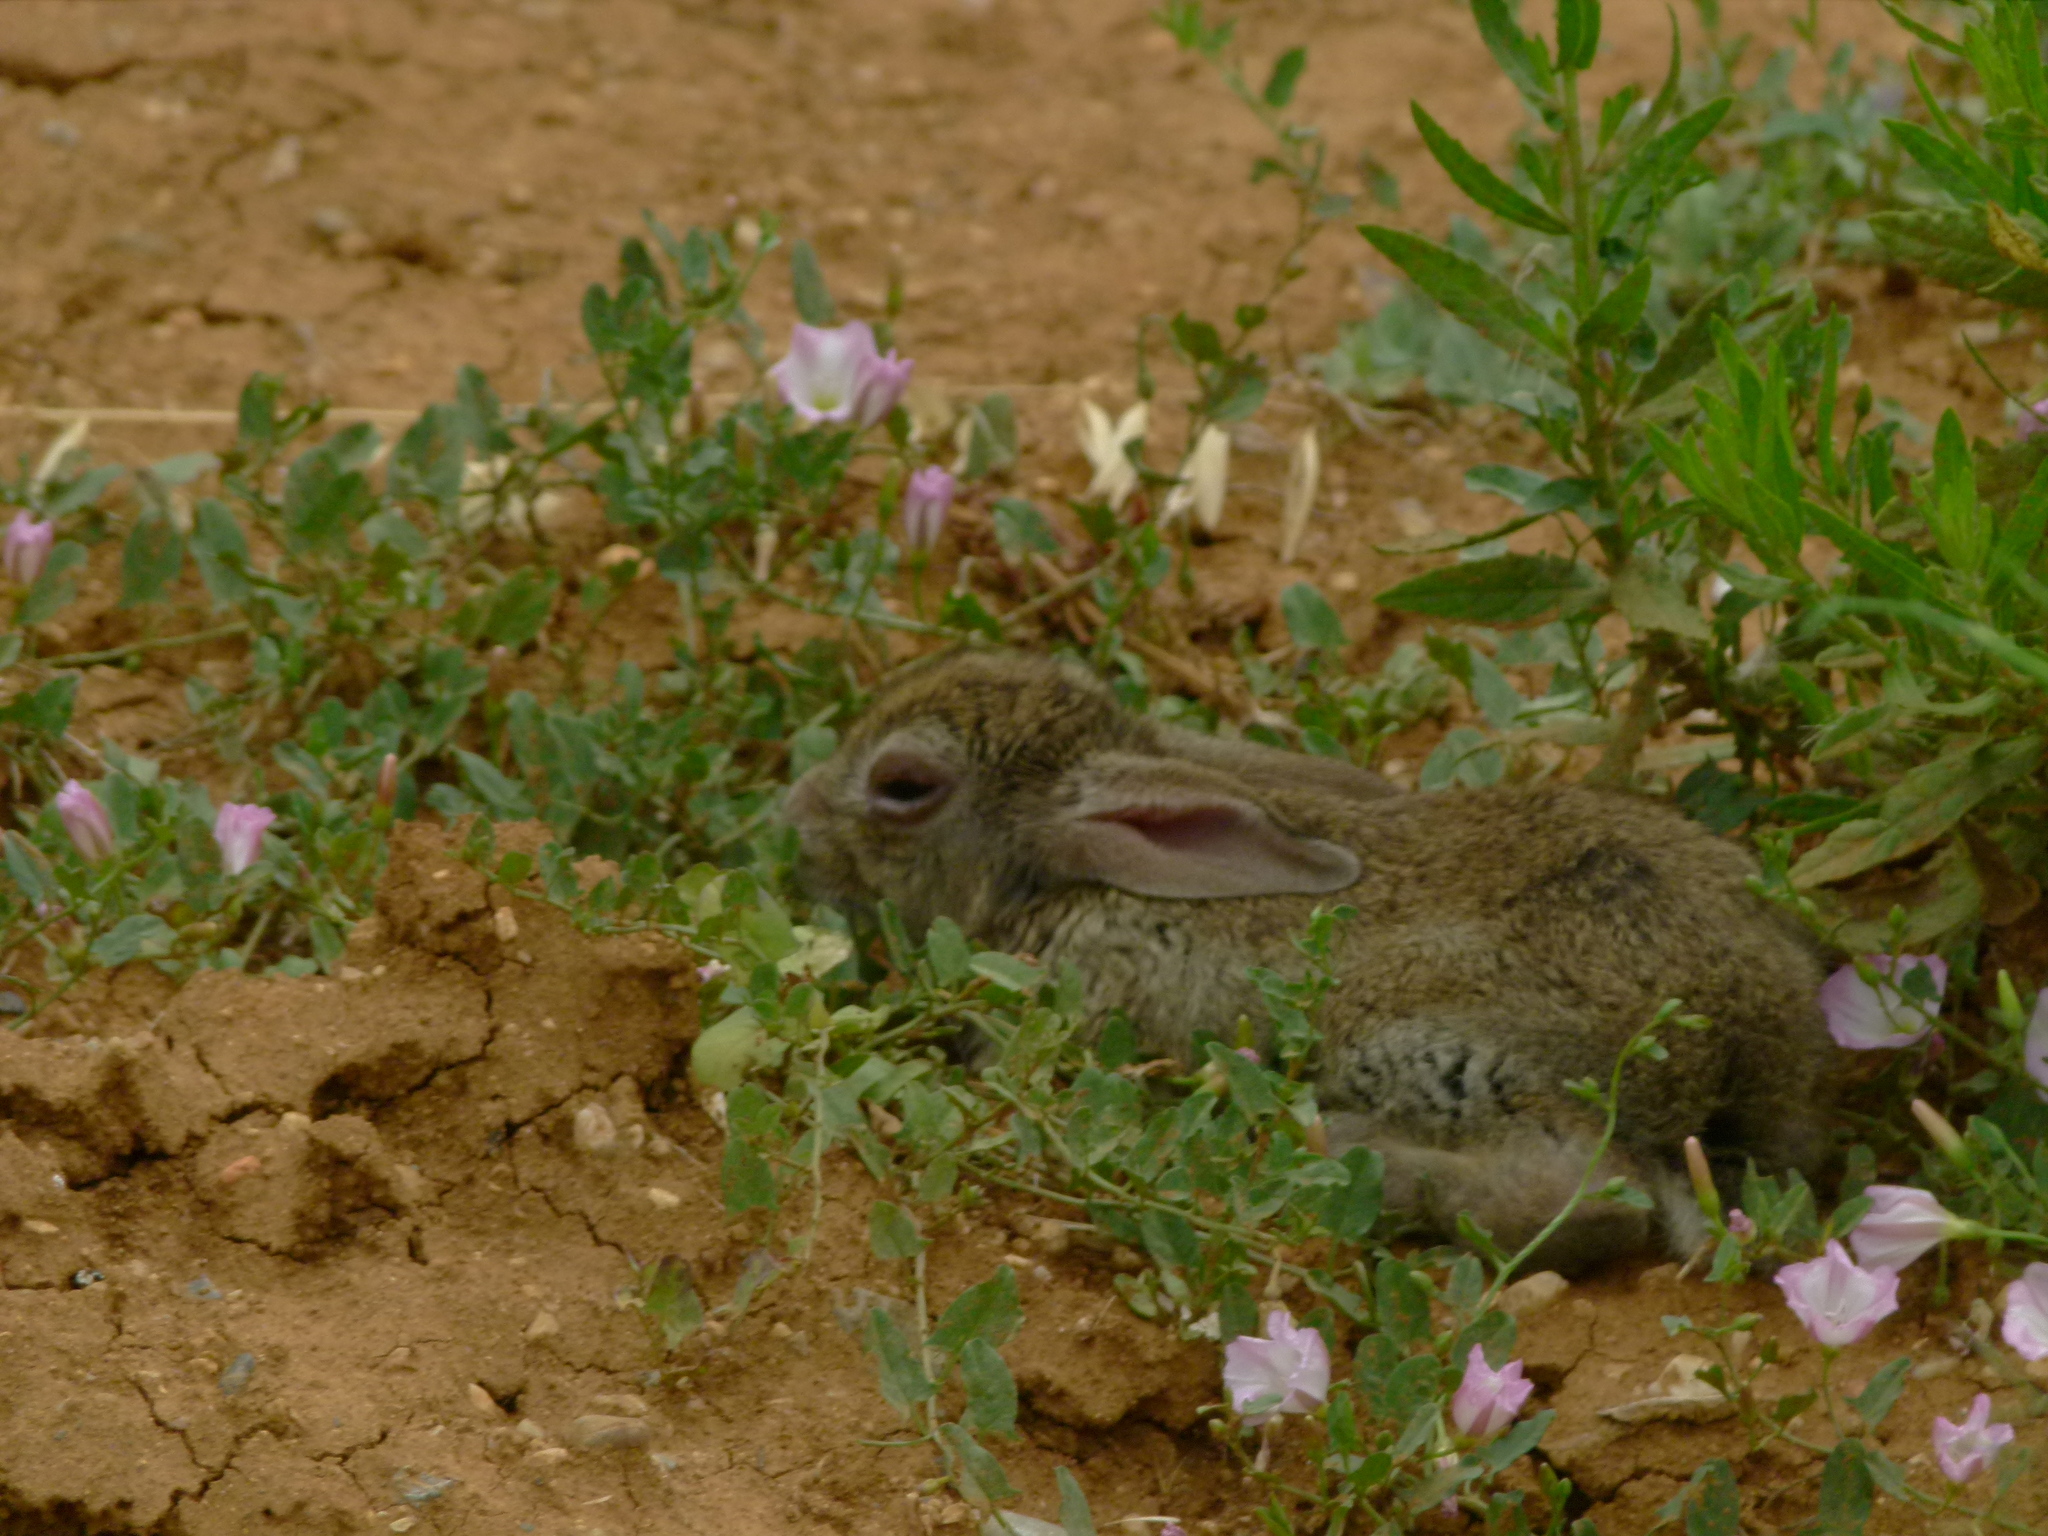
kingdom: Animalia
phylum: Chordata
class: Mammalia
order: Lagomorpha
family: Leporidae
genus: Oryctolagus
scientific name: Oryctolagus cuniculus
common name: European rabbit
